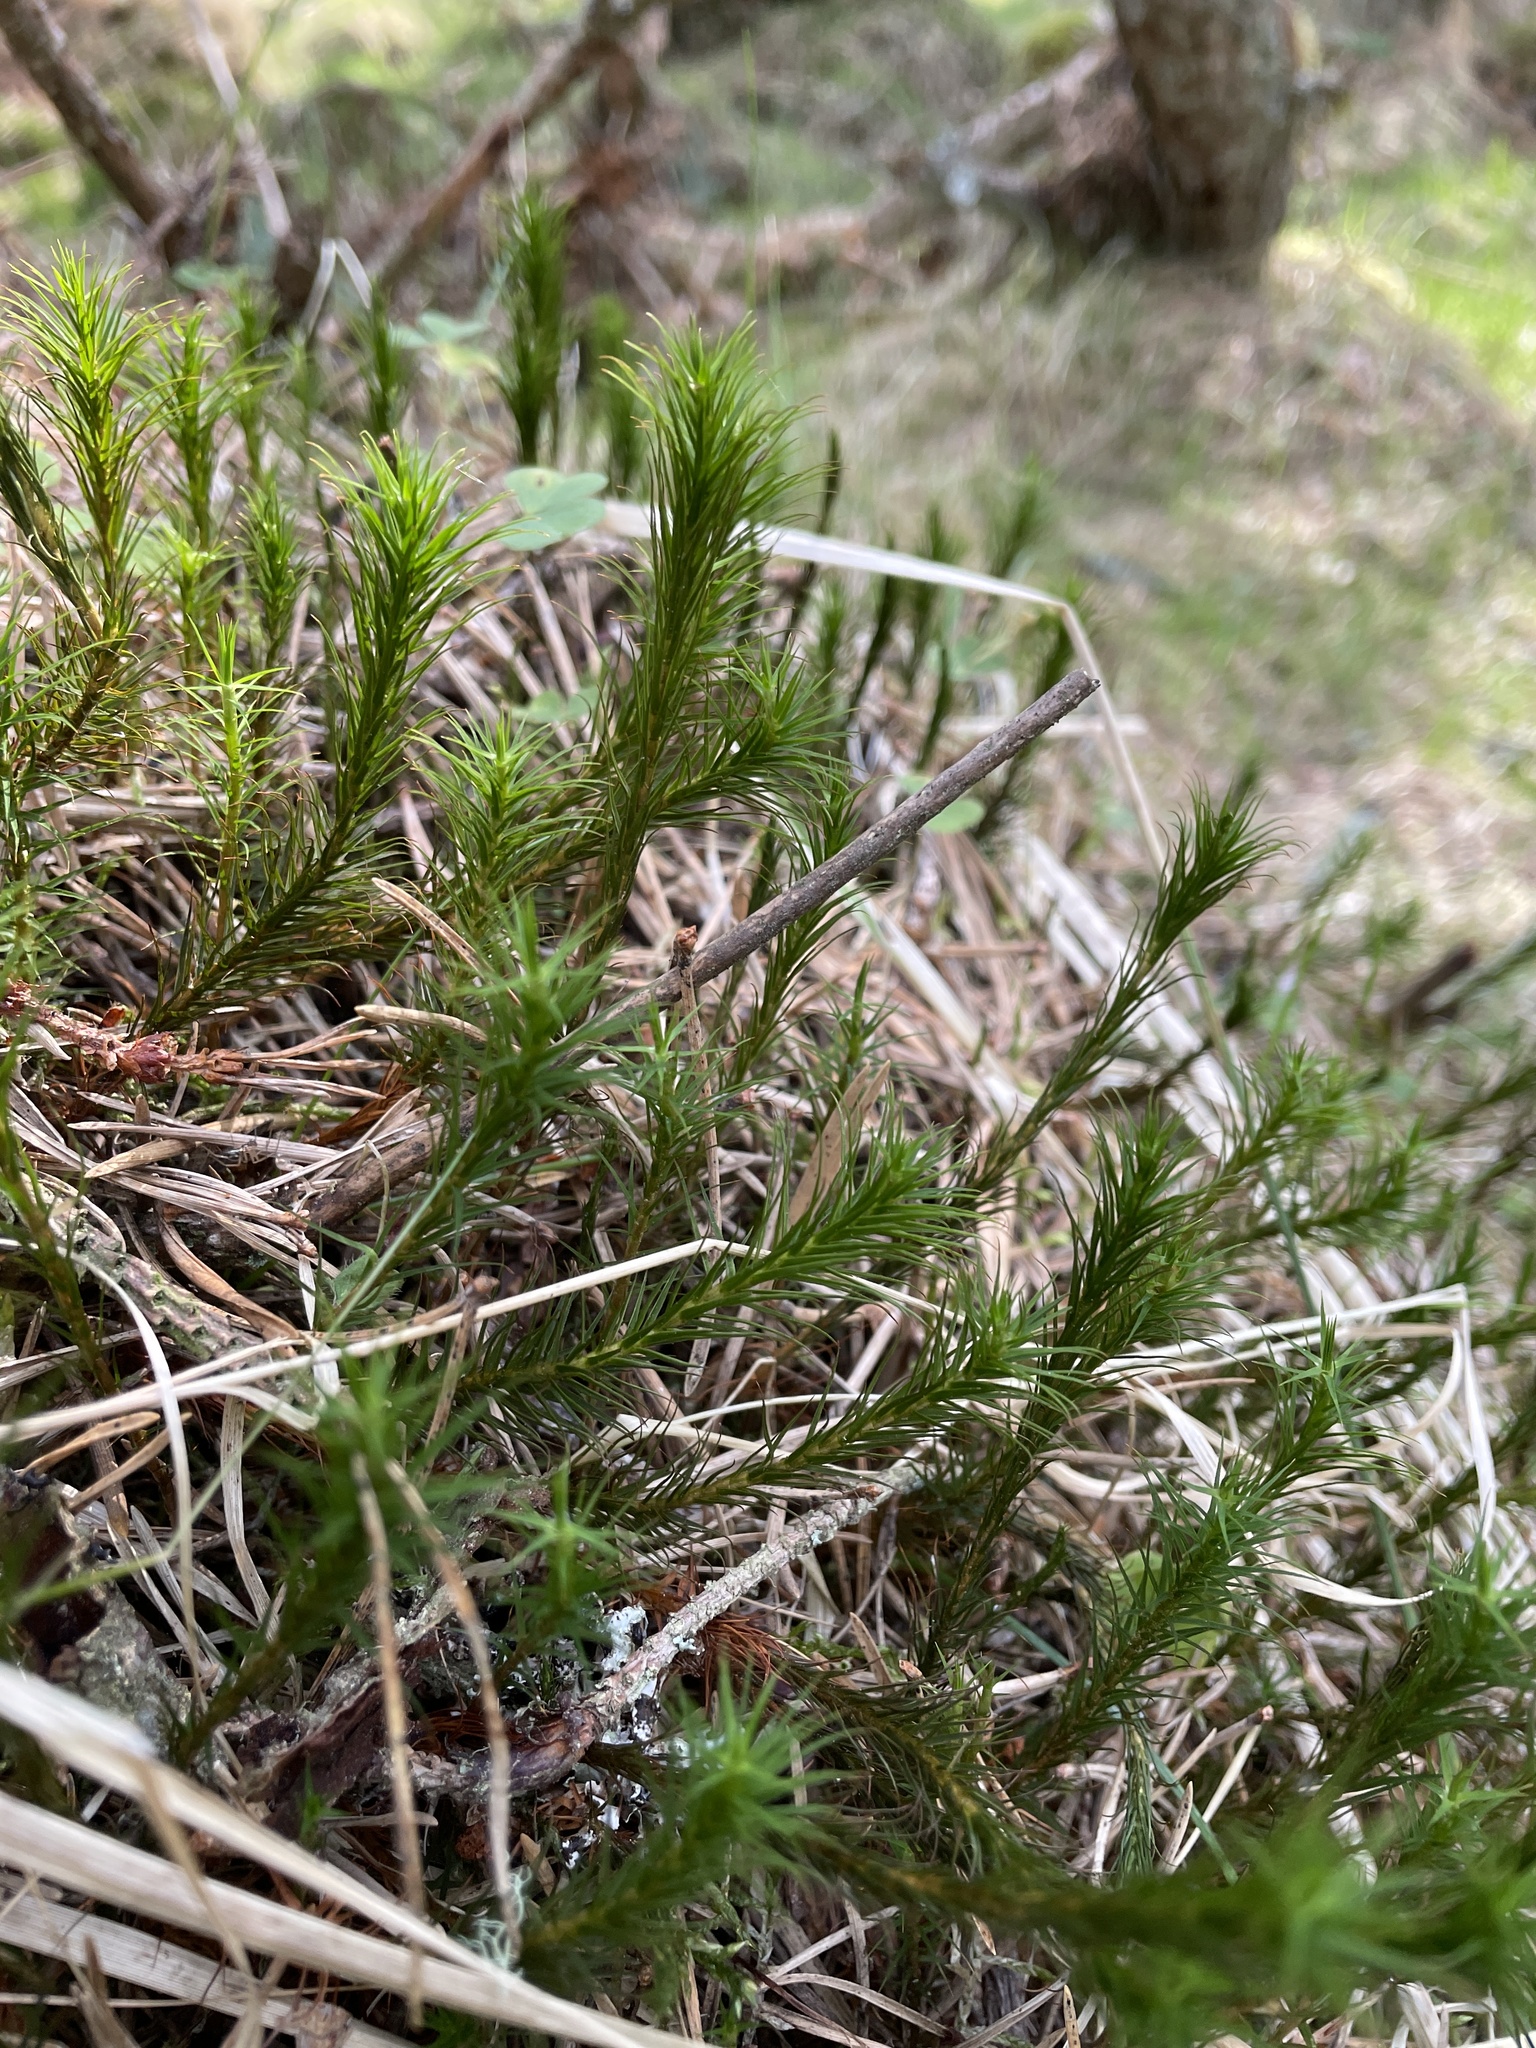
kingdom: Plantae
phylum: Bryophyta
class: Polytrichopsida
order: Polytrichales
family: Polytrichaceae
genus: Polytrichum
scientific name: Polytrichum formosum
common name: Bank haircap moss
